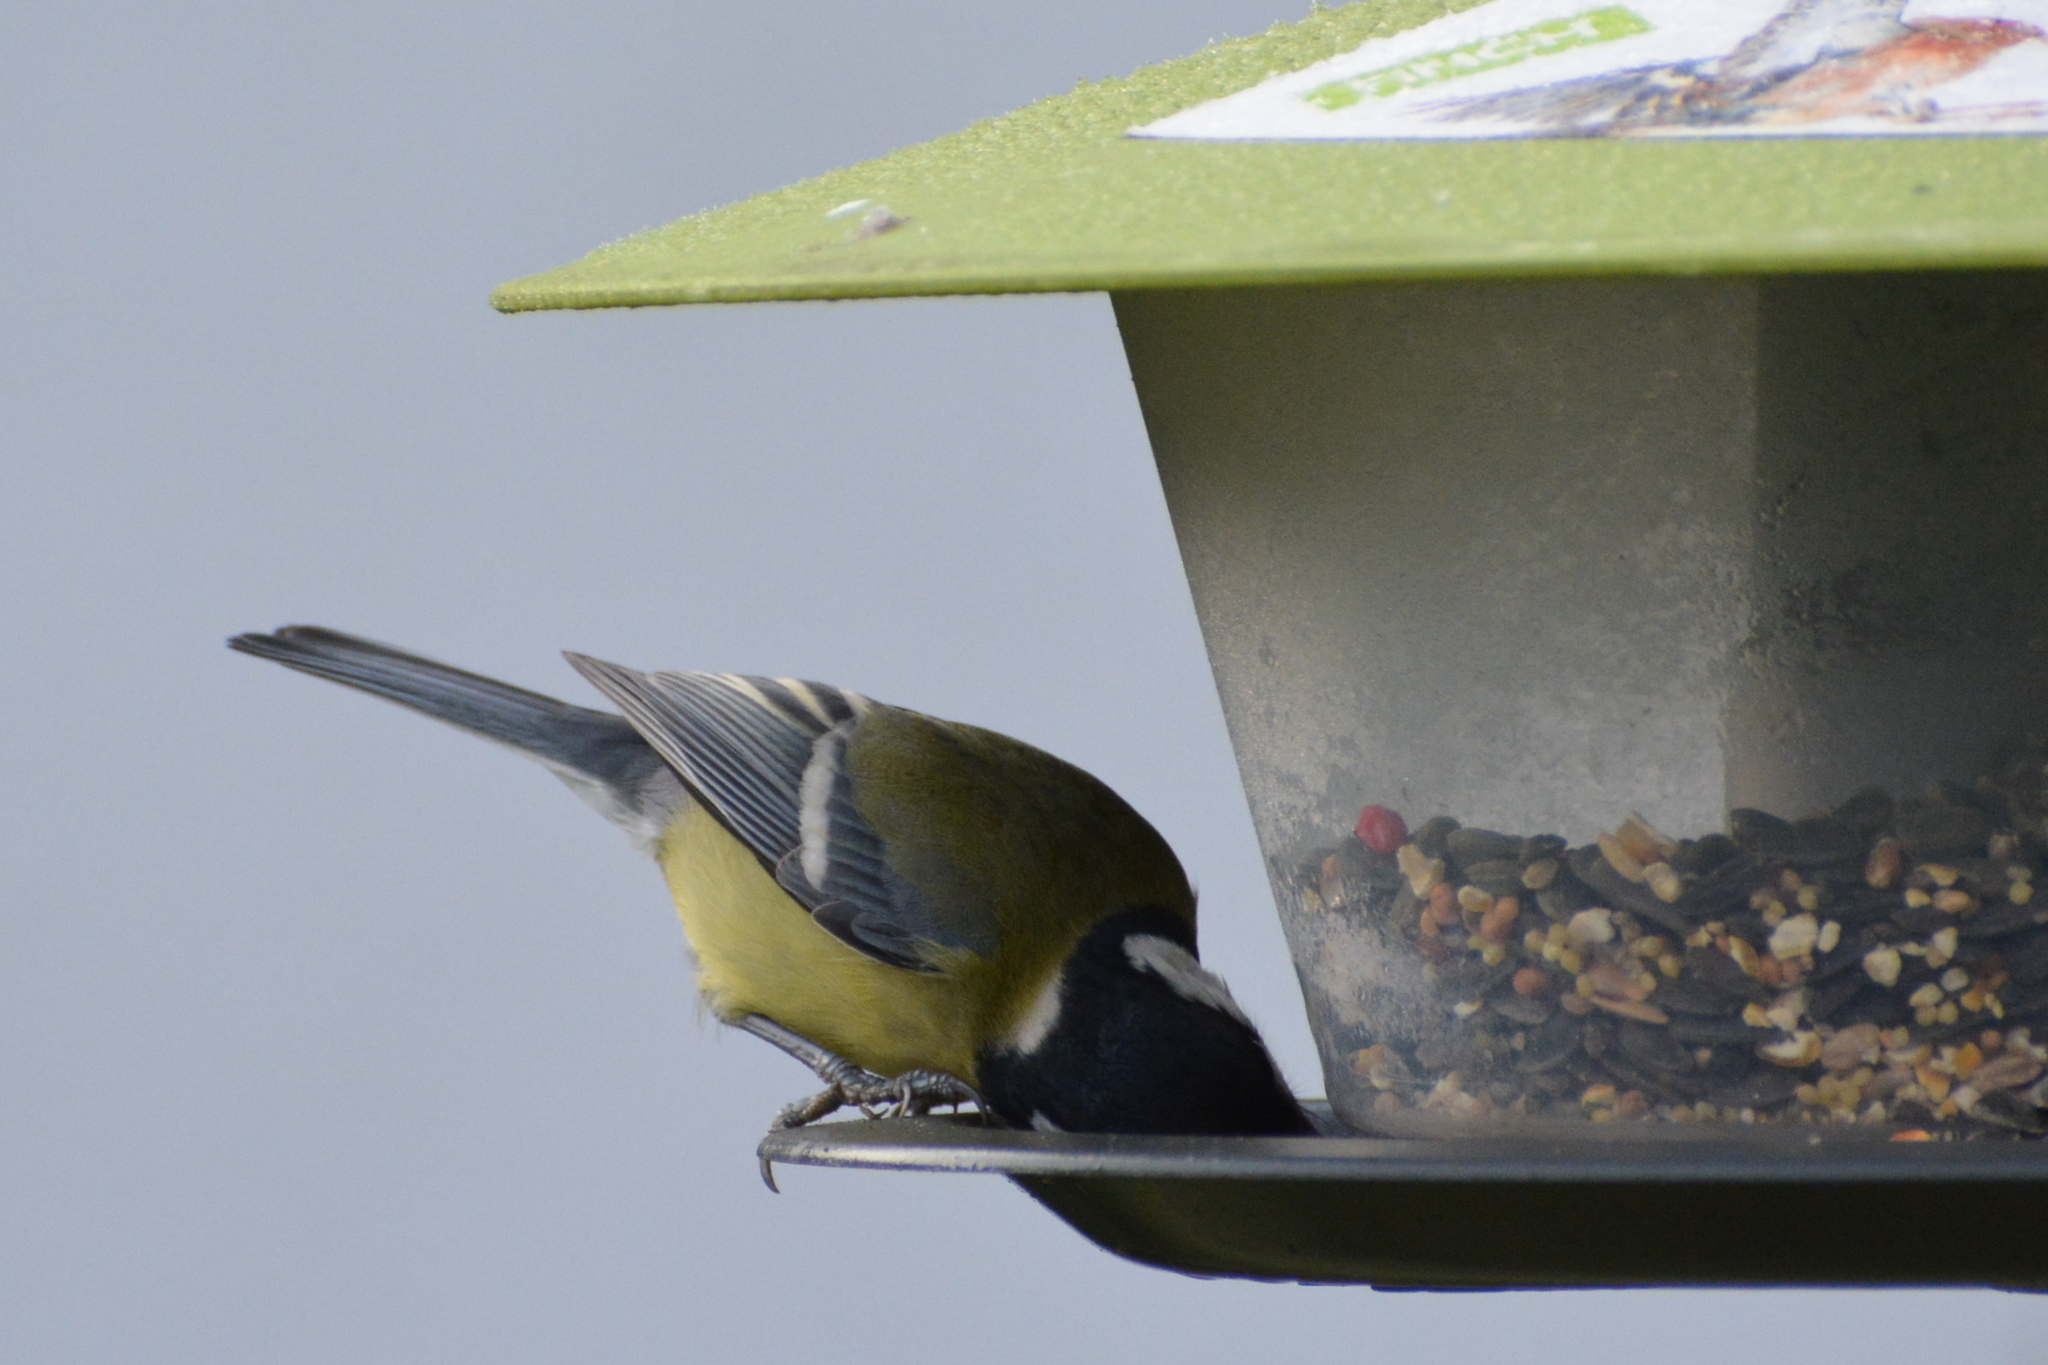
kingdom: Animalia
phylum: Chordata
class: Aves
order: Passeriformes
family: Paridae
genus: Parus
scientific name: Parus major
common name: Great tit
